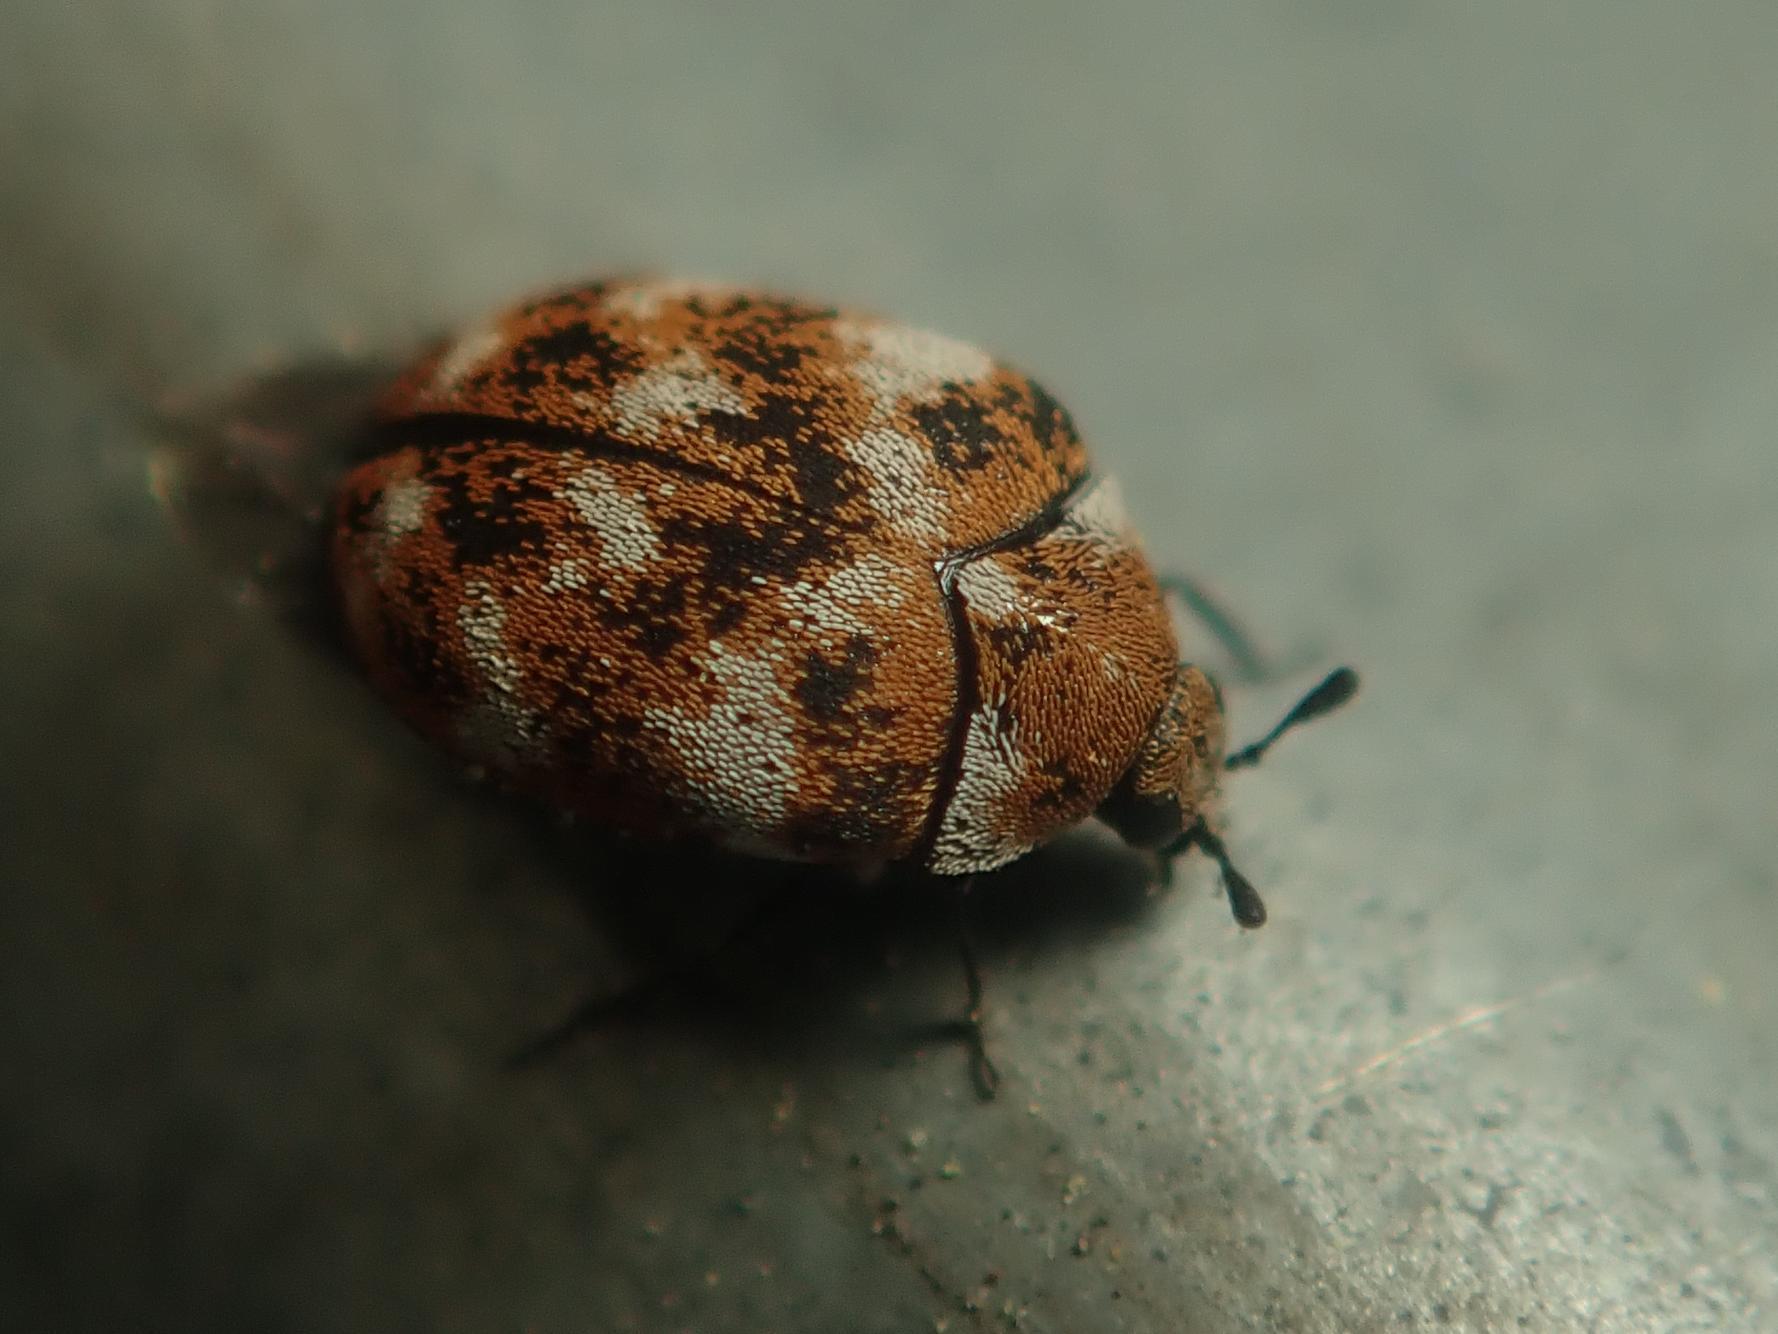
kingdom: Animalia
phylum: Arthropoda
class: Insecta
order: Coleoptera
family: Dermestidae
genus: Anthrenus
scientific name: Anthrenus verbasci
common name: Varied carpet beetle
